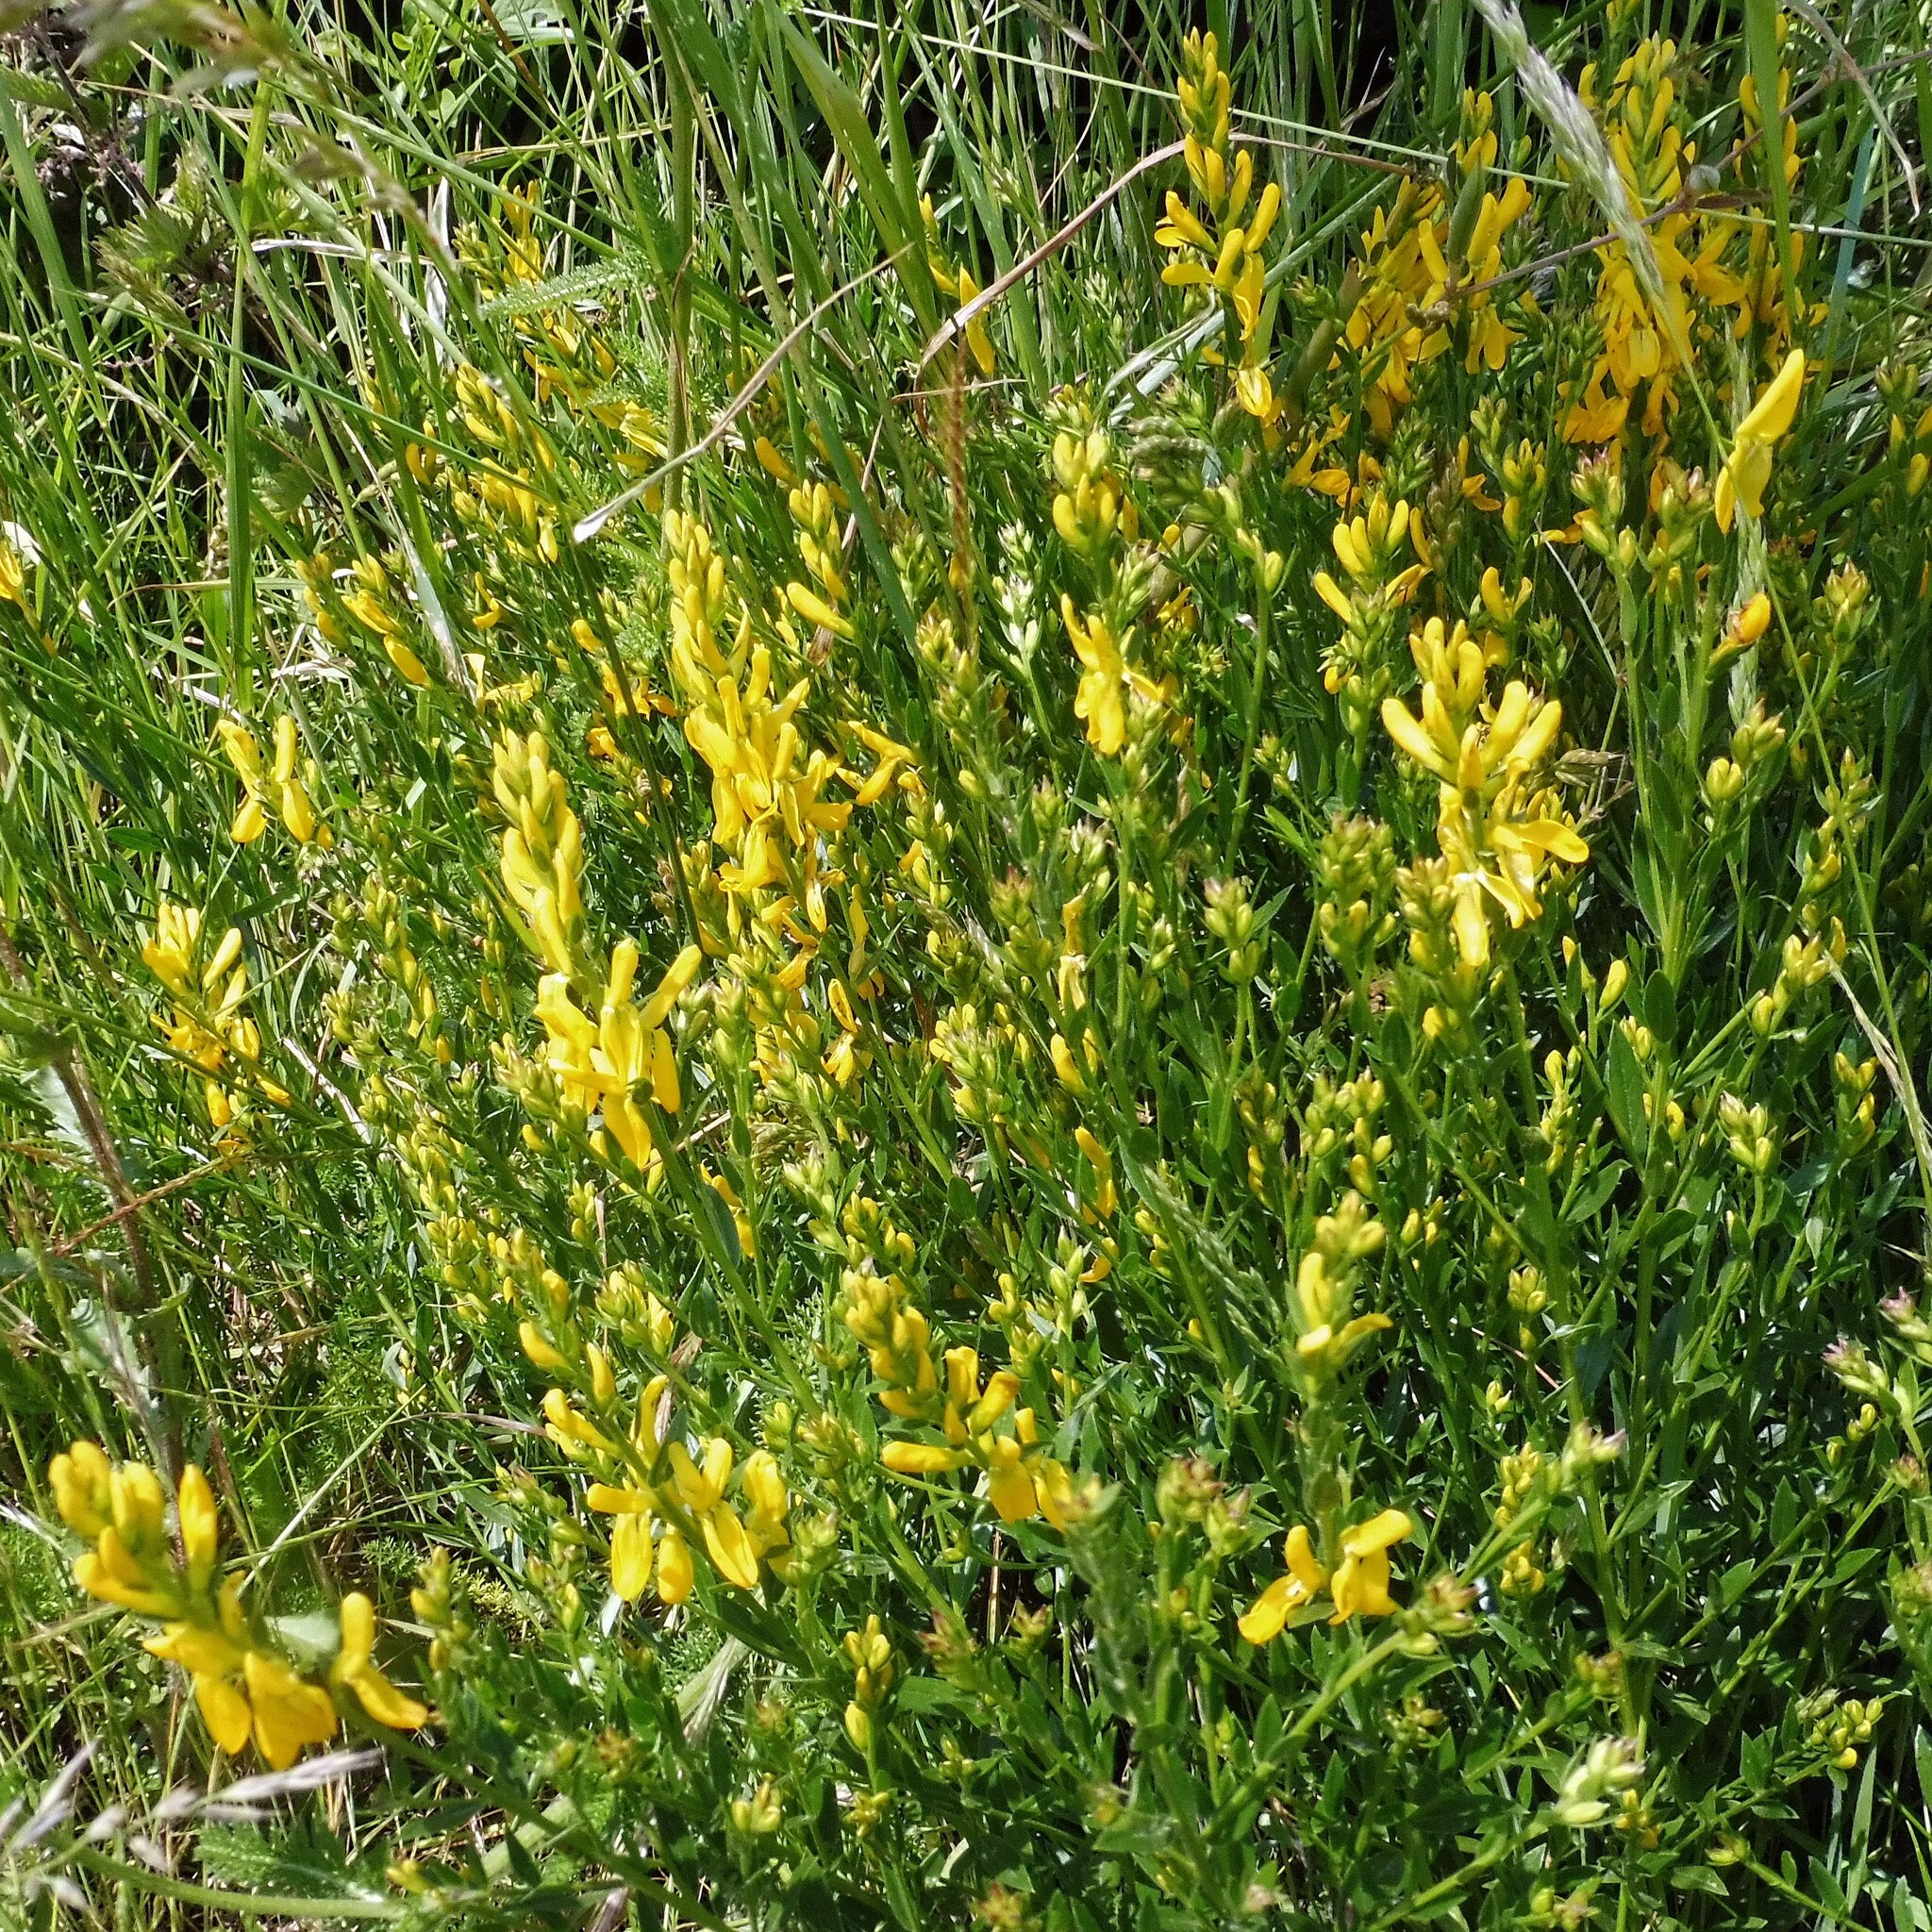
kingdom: Plantae
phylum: Tracheophyta
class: Magnoliopsida
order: Fabales
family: Fabaceae
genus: Genista
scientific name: Genista tinctoria
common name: Dyer's greenweed
